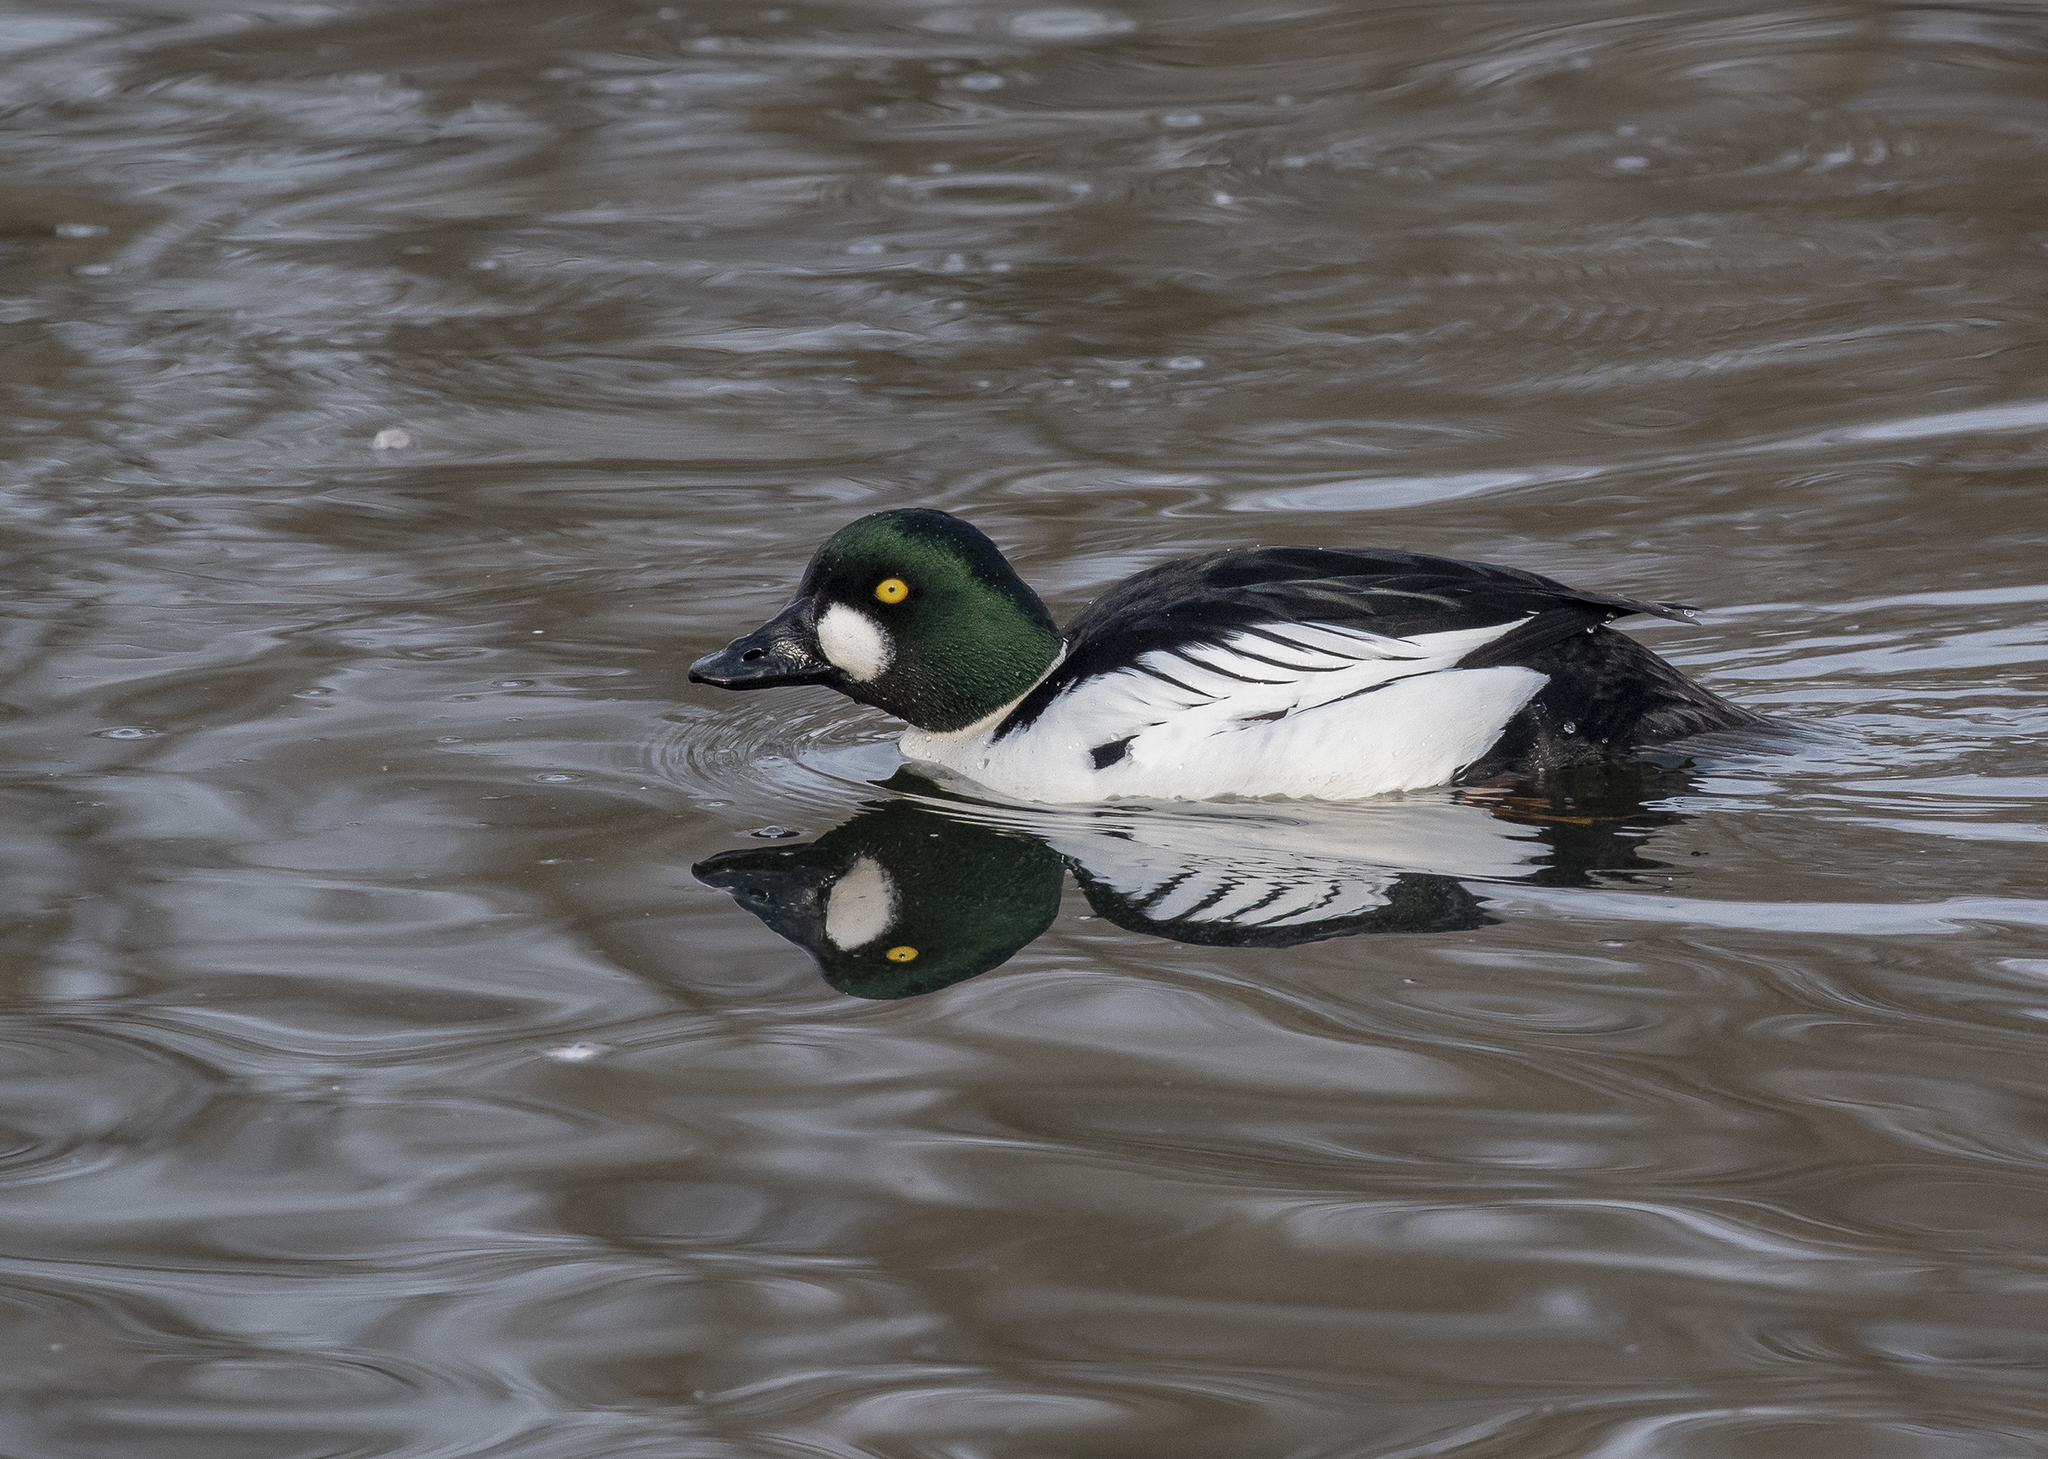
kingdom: Animalia
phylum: Chordata
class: Aves
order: Anseriformes
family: Anatidae
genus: Bucephala
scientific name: Bucephala clangula
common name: Common goldeneye
